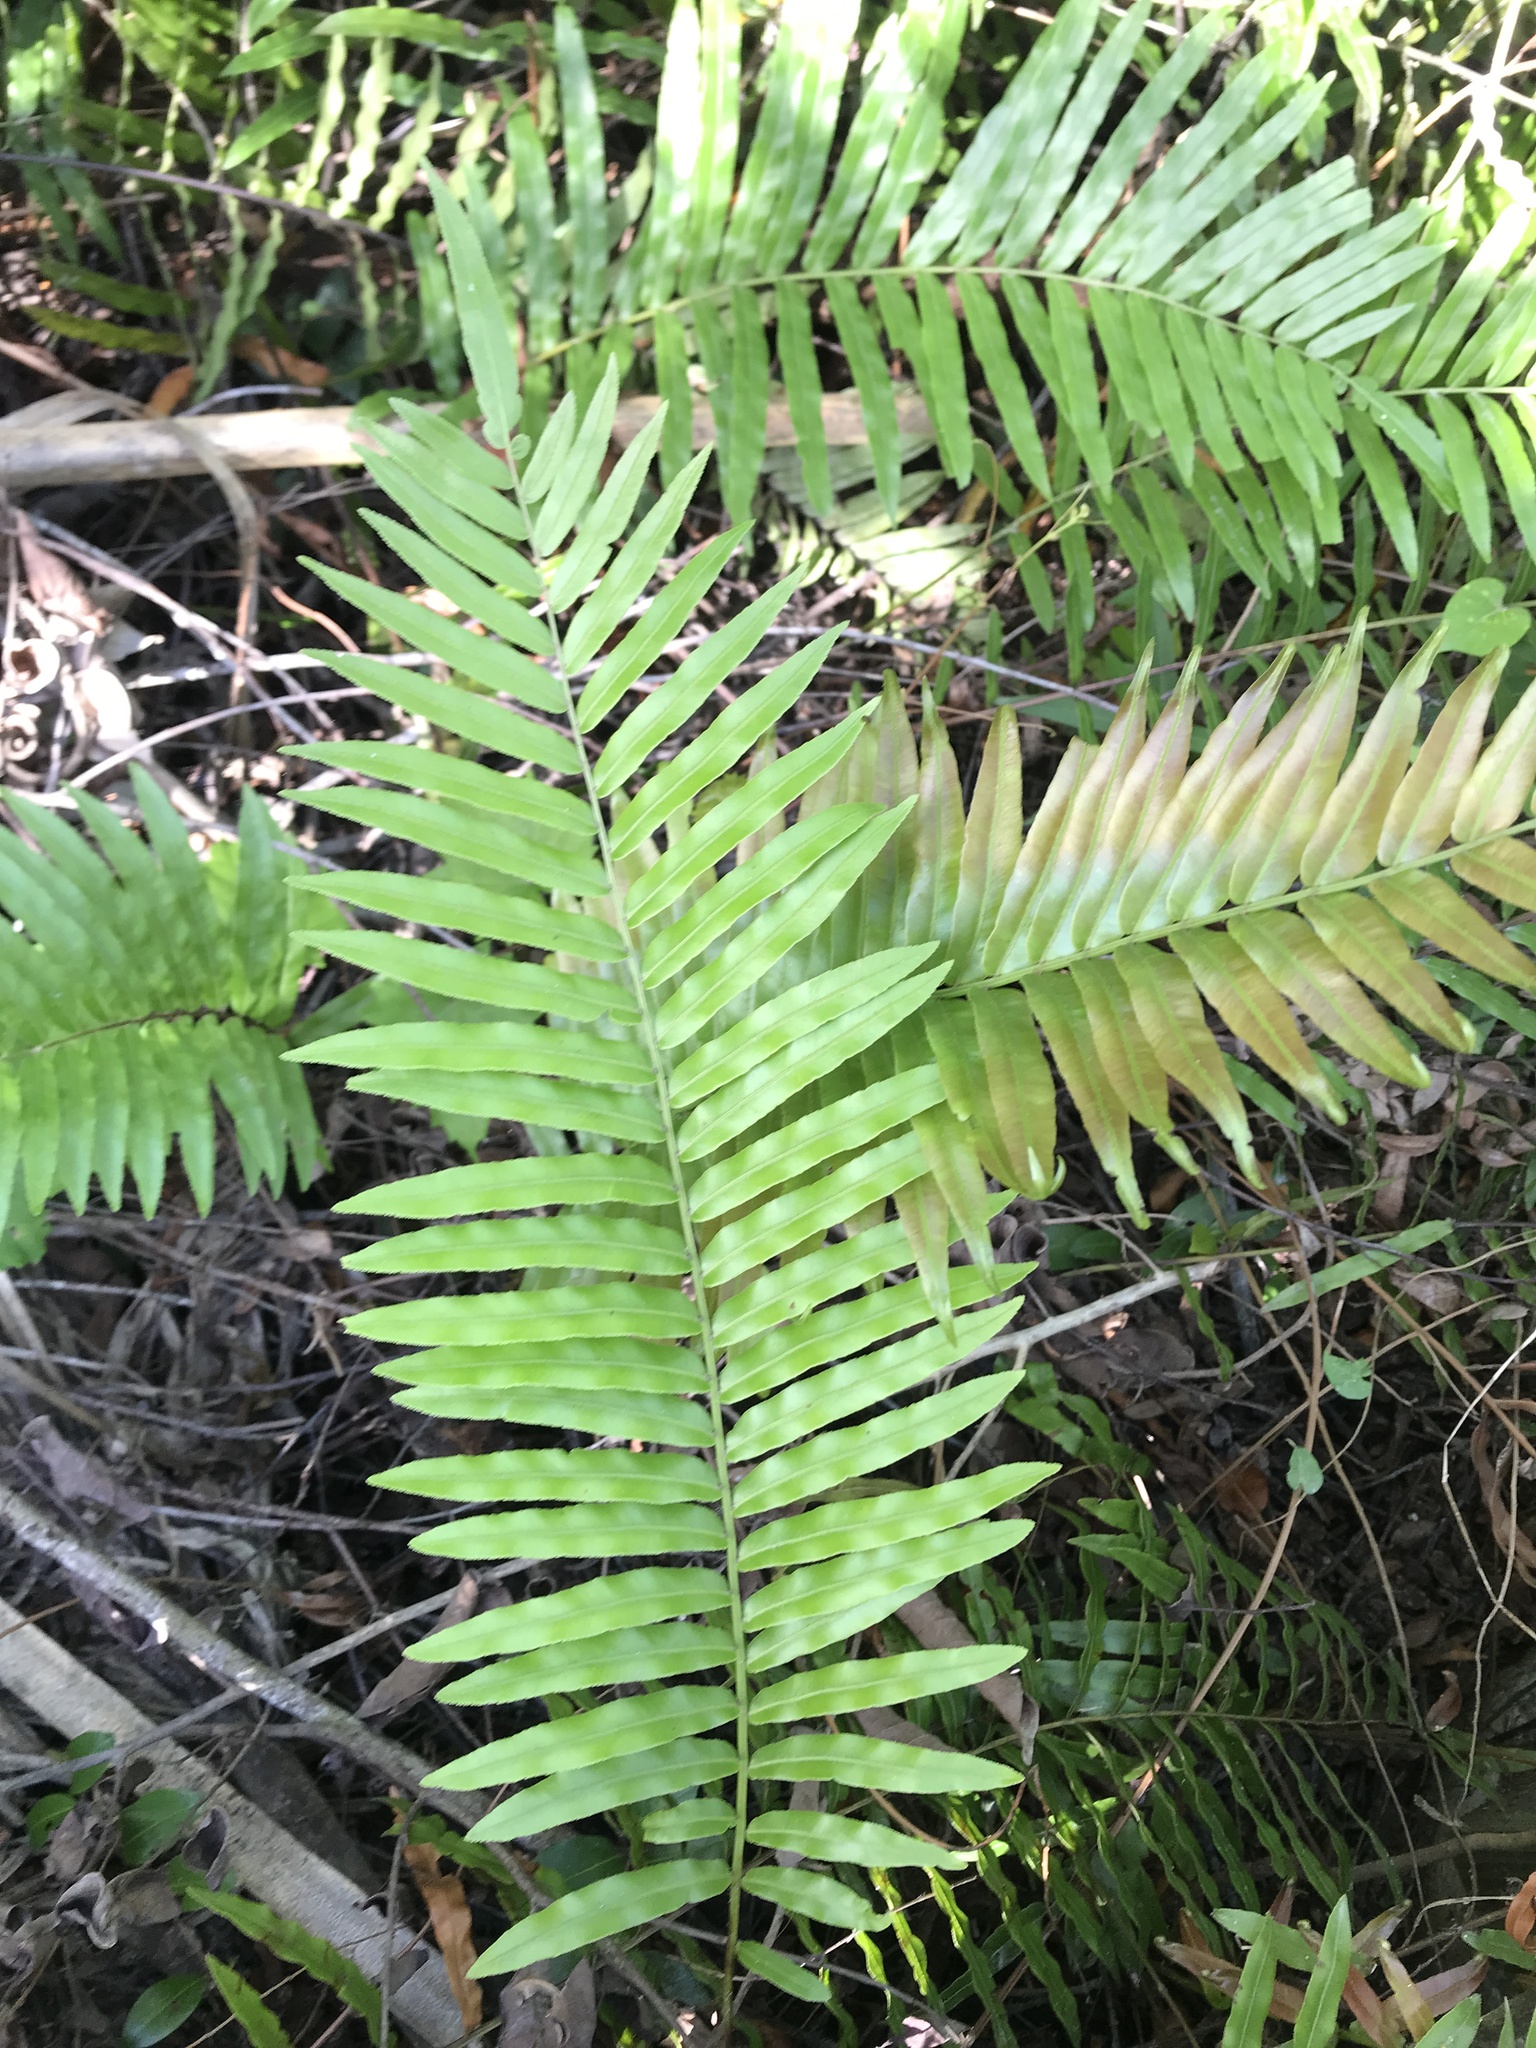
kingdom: Plantae
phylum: Tracheophyta
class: Polypodiopsida
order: Polypodiales
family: Blechnaceae
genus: Telmatoblechnum
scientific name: Telmatoblechnum serrulatum
